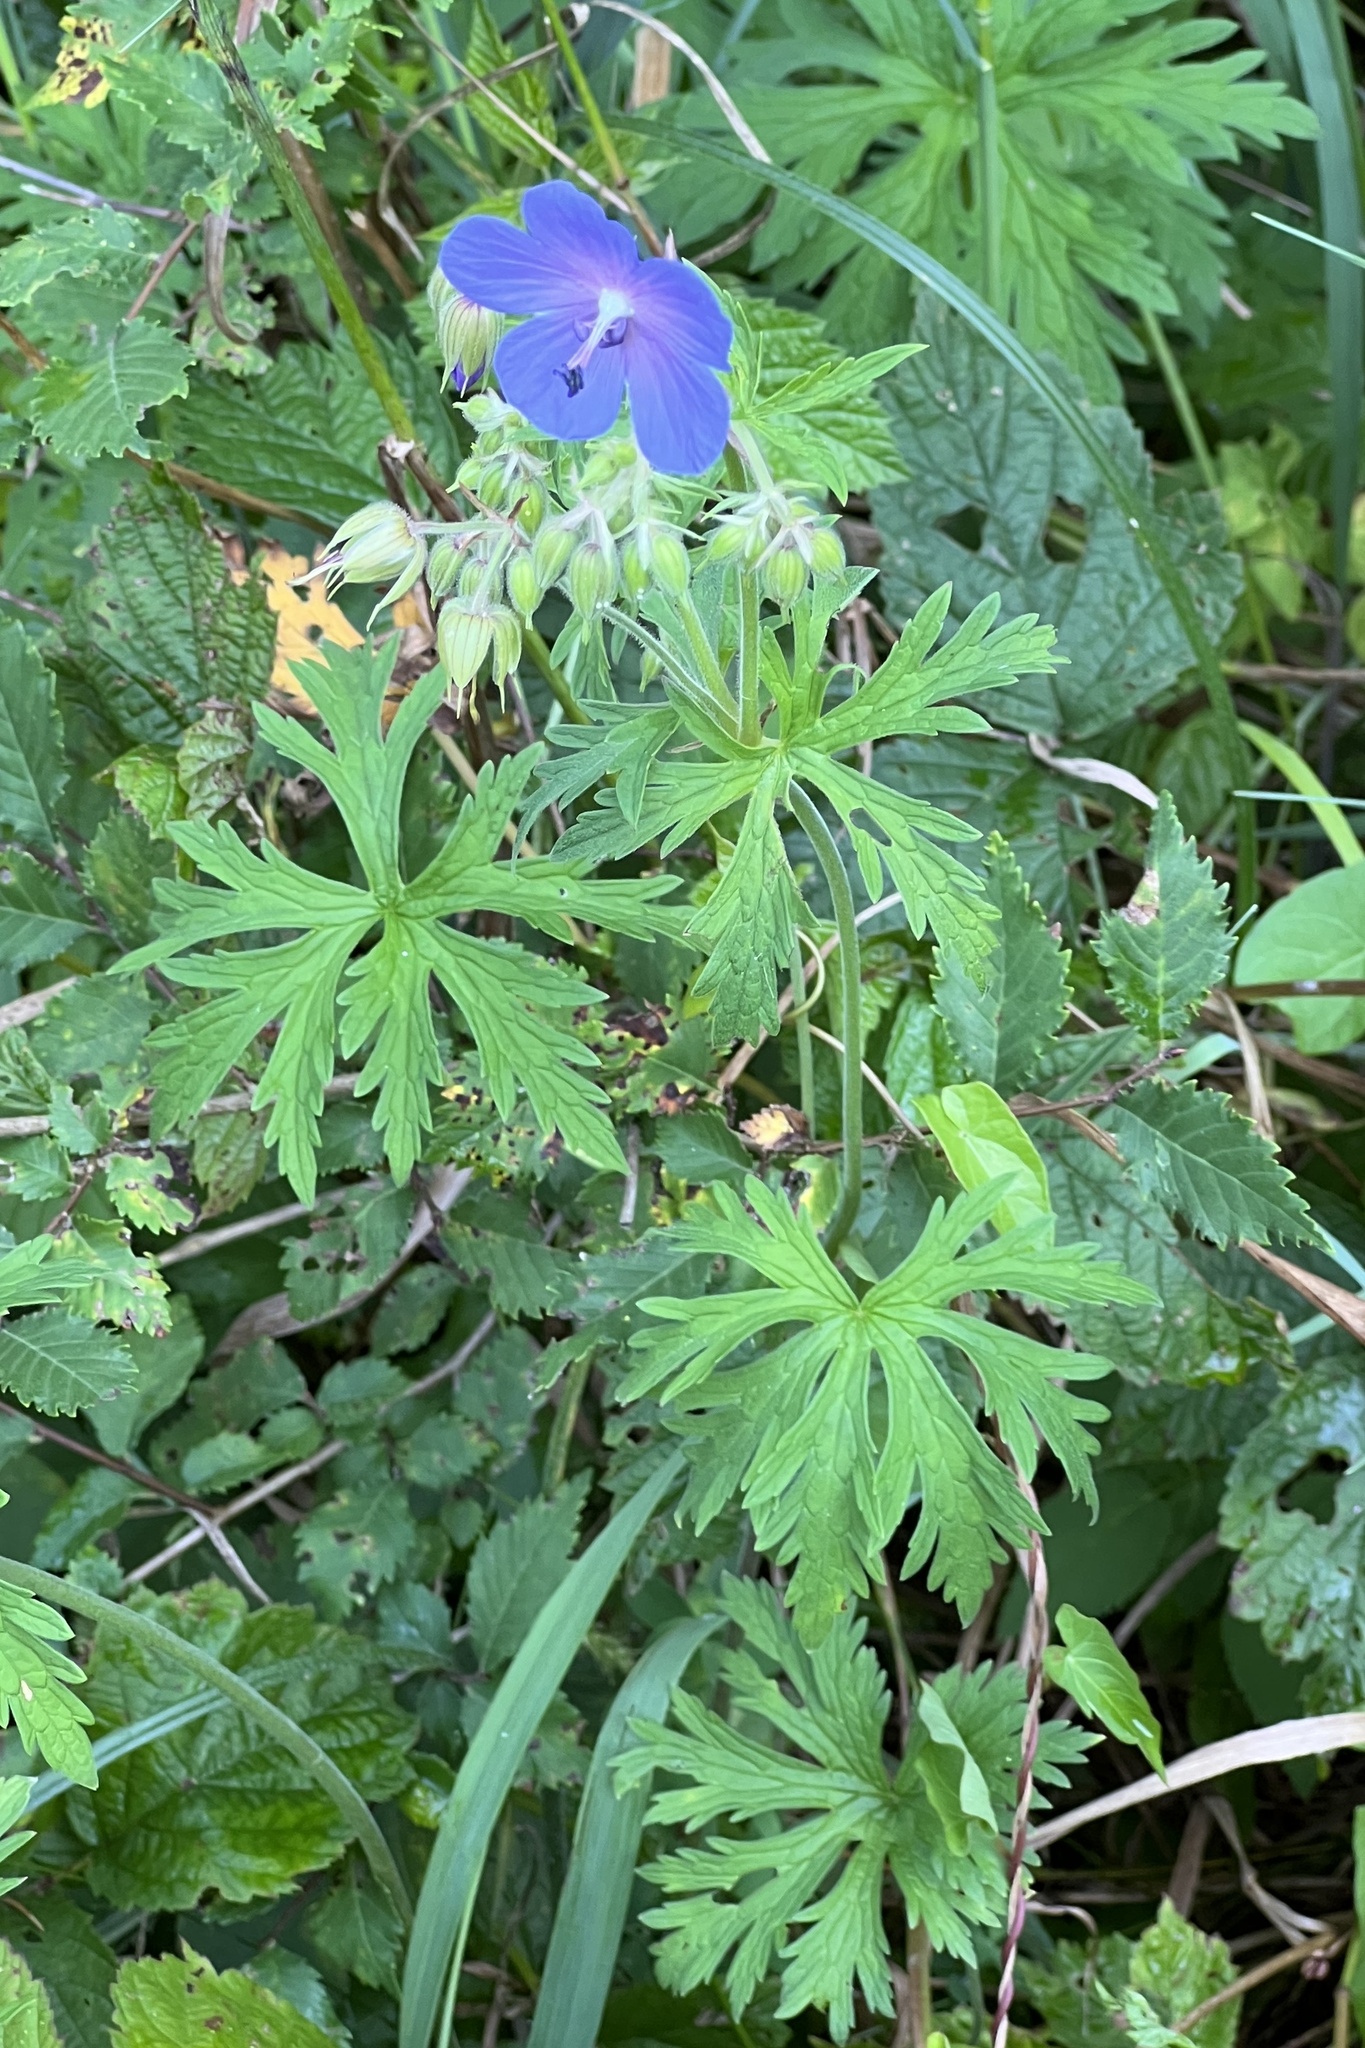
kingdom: Plantae
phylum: Tracheophyta
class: Magnoliopsida
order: Geraniales
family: Geraniaceae
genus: Geranium
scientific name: Geranium pratense
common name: Meadow crane's-bill
